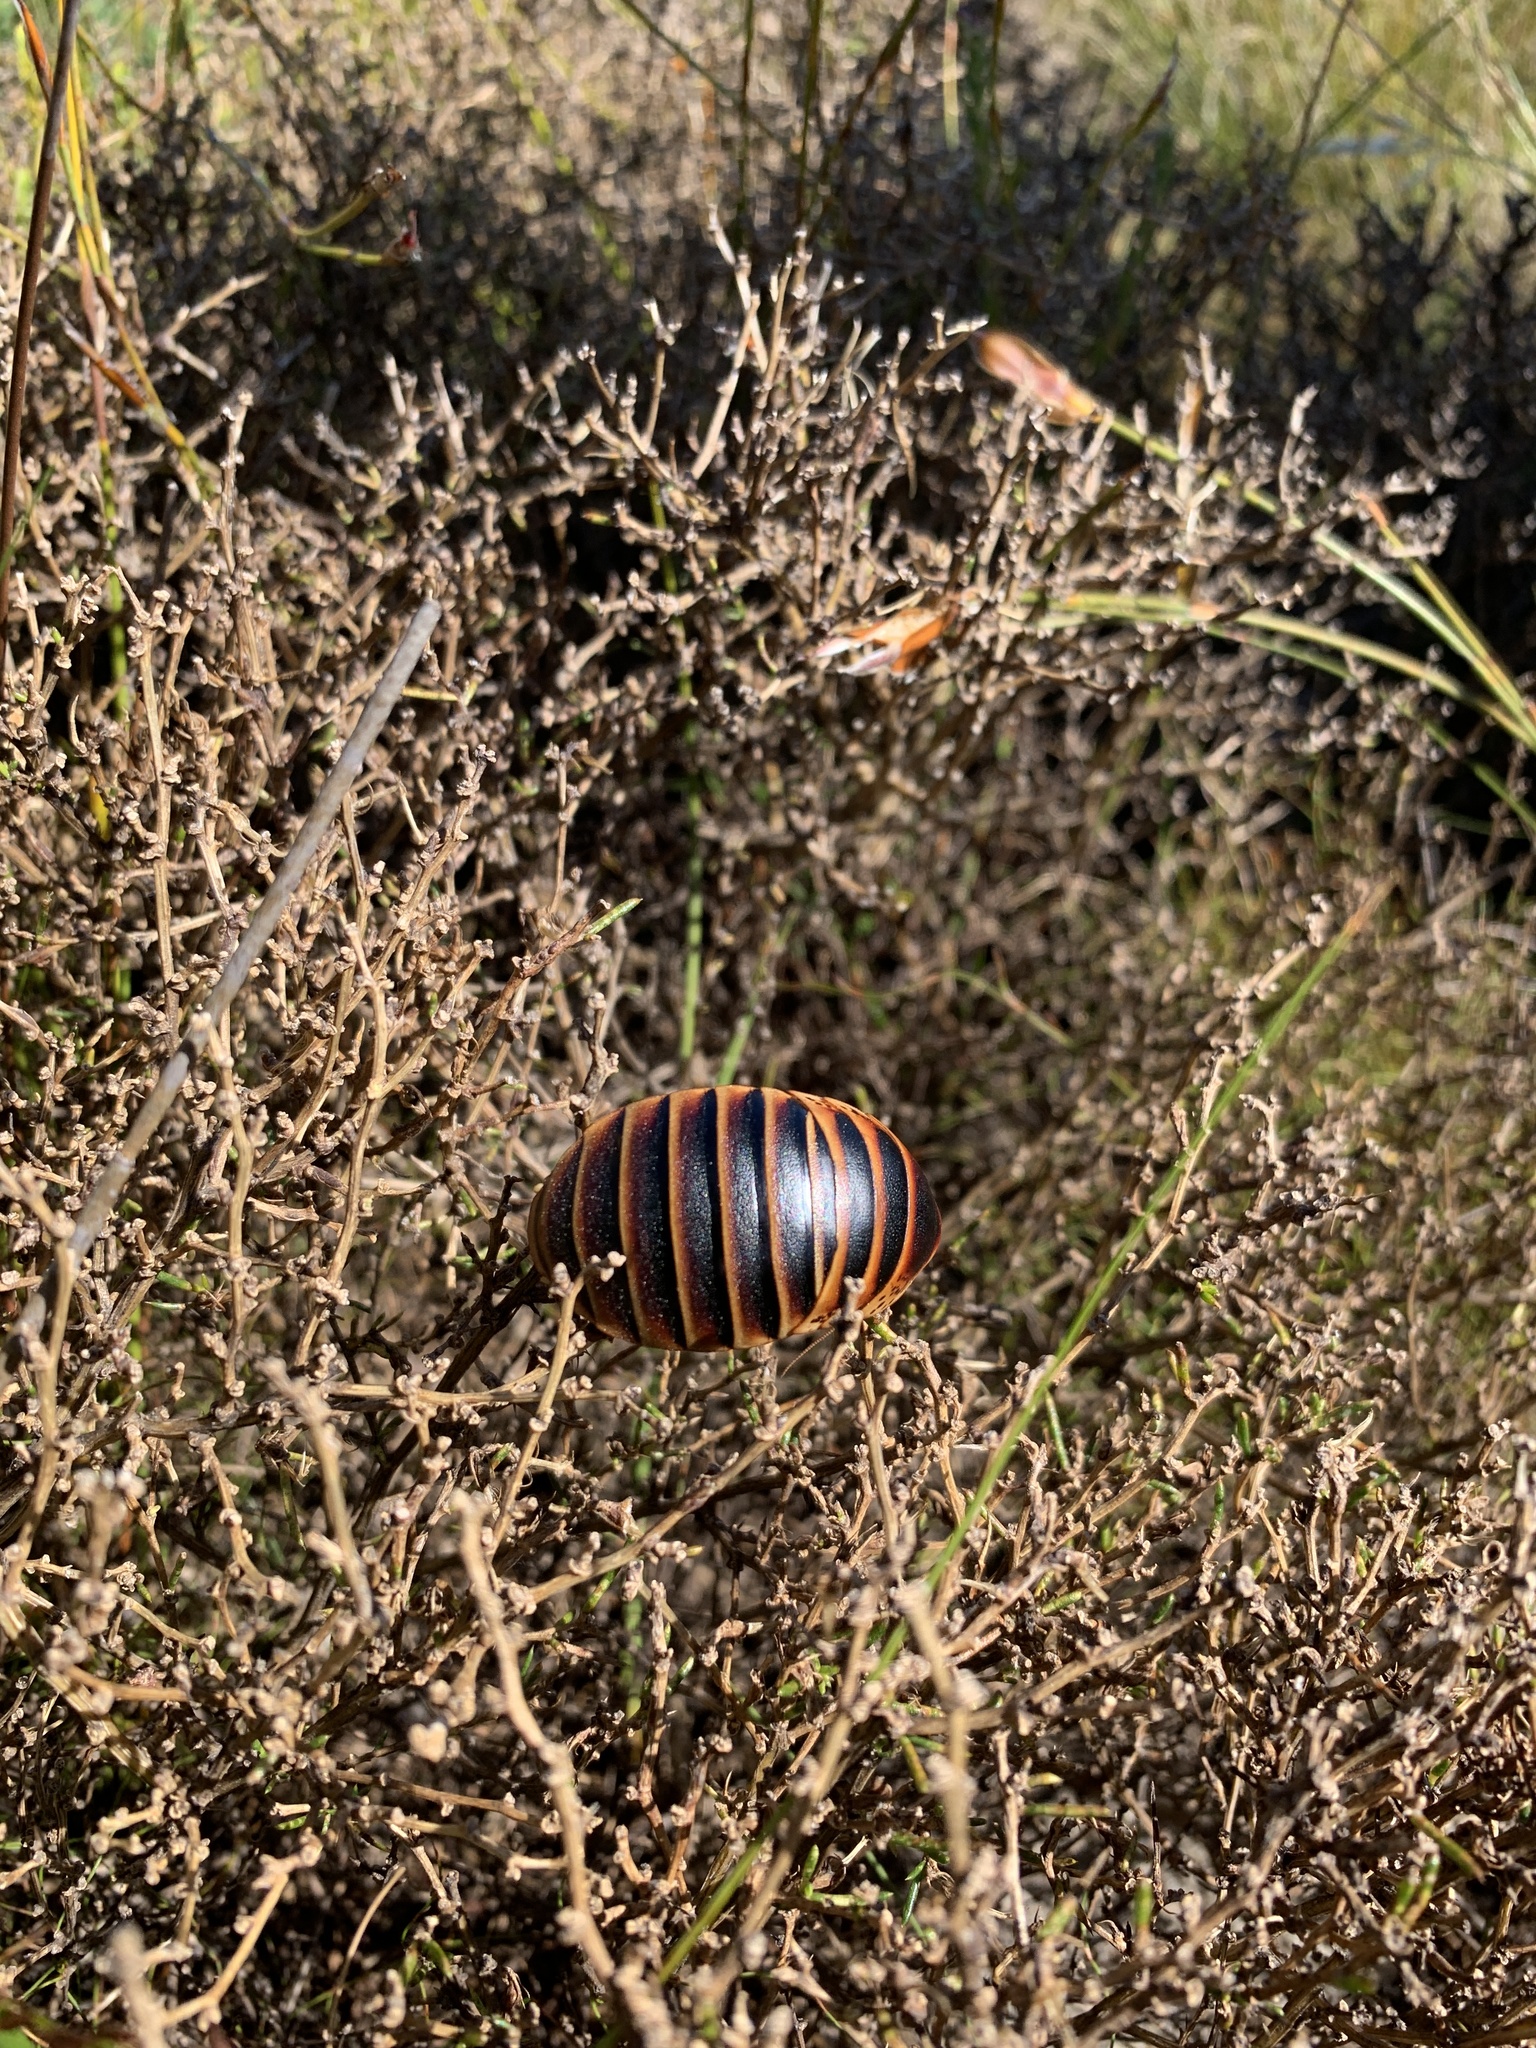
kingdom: Animalia
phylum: Arthropoda
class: Insecta
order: Blattodea
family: Blaberidae
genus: Aptera
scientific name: Aptera fusca
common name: Cape mountain cockroach
